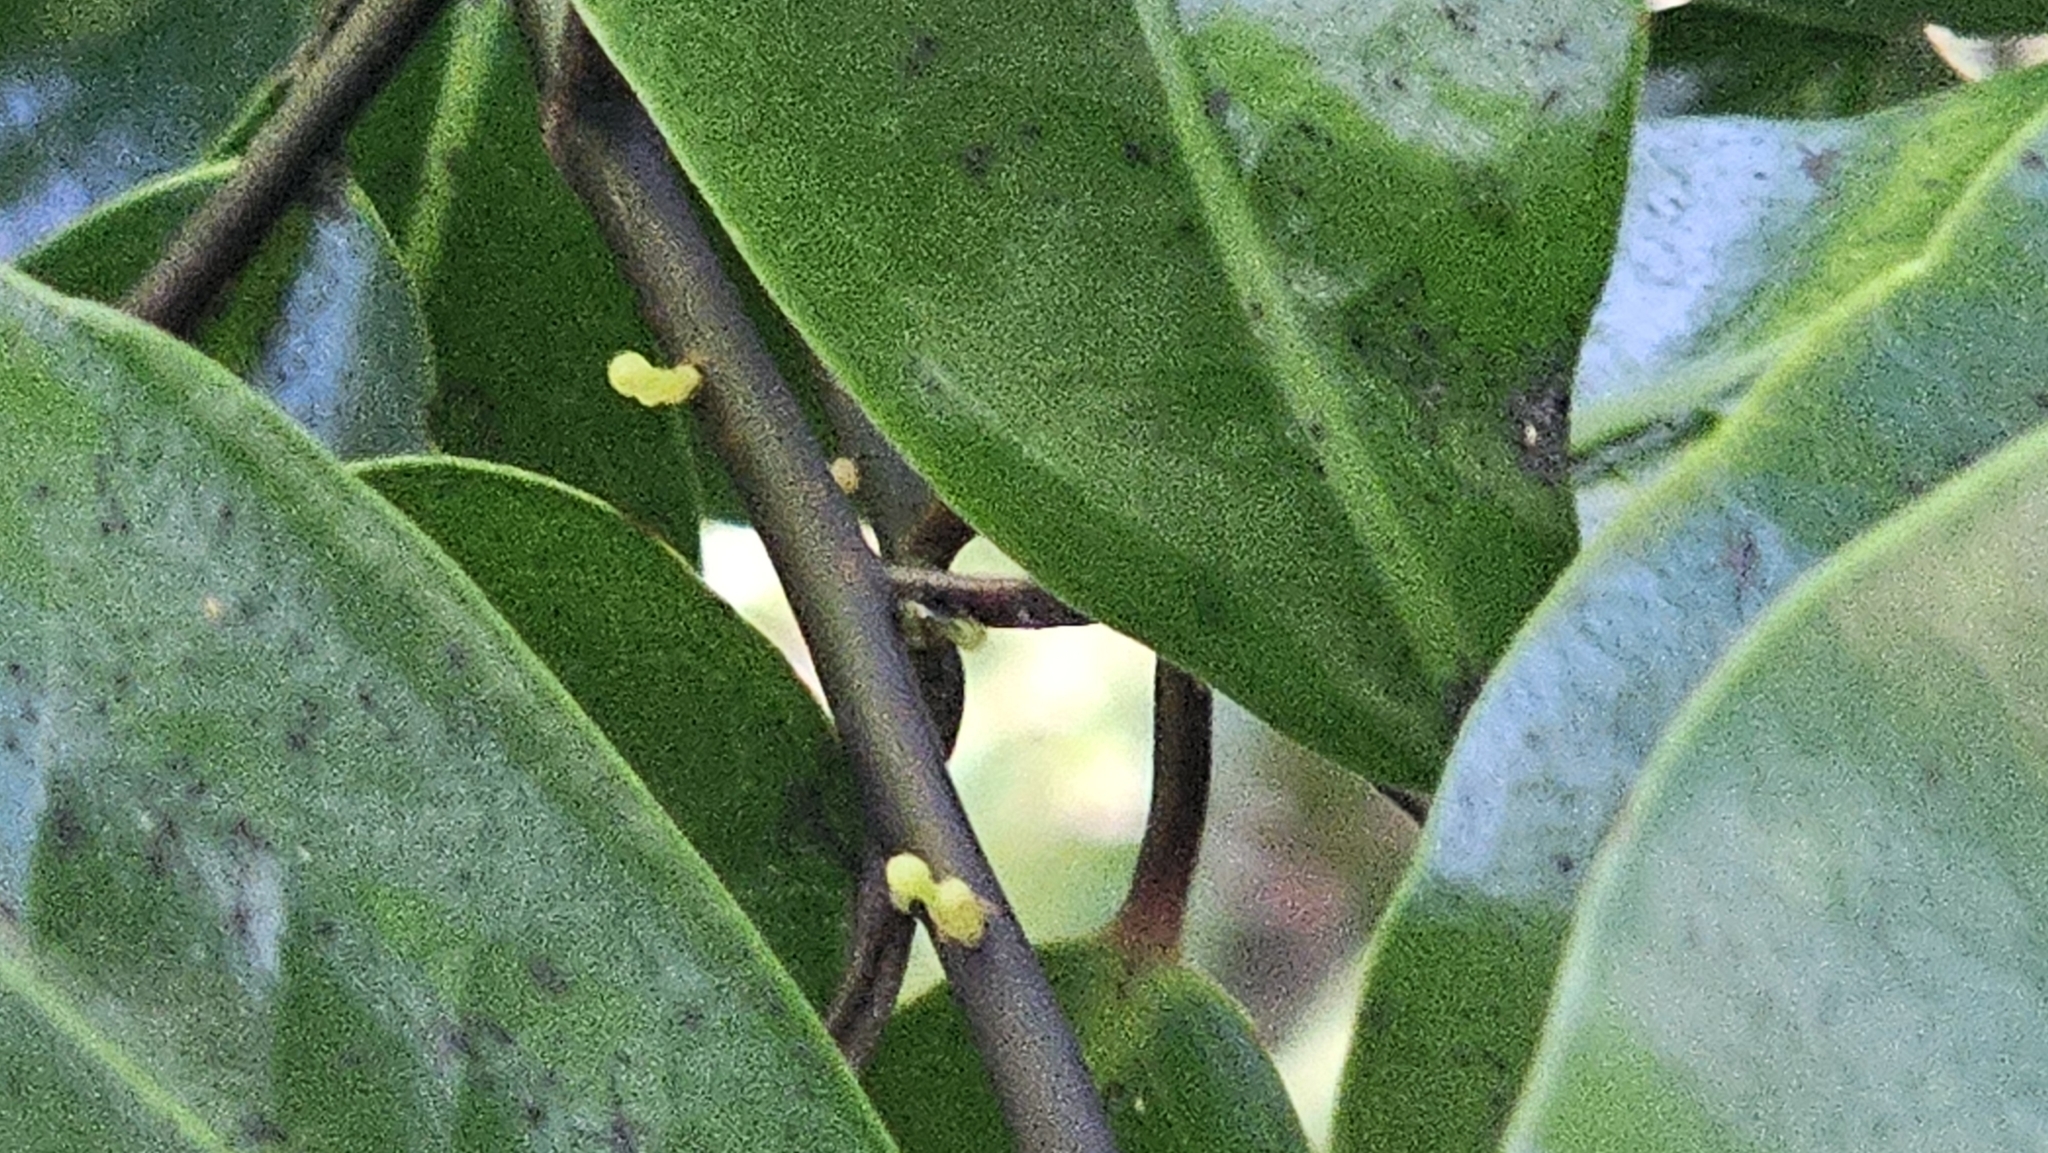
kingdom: Plantae
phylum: Tracheophyta
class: Magnoliopsida
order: Canellales
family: Winteraceae
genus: Pseudowintera
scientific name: Pseudowintera axillaris
